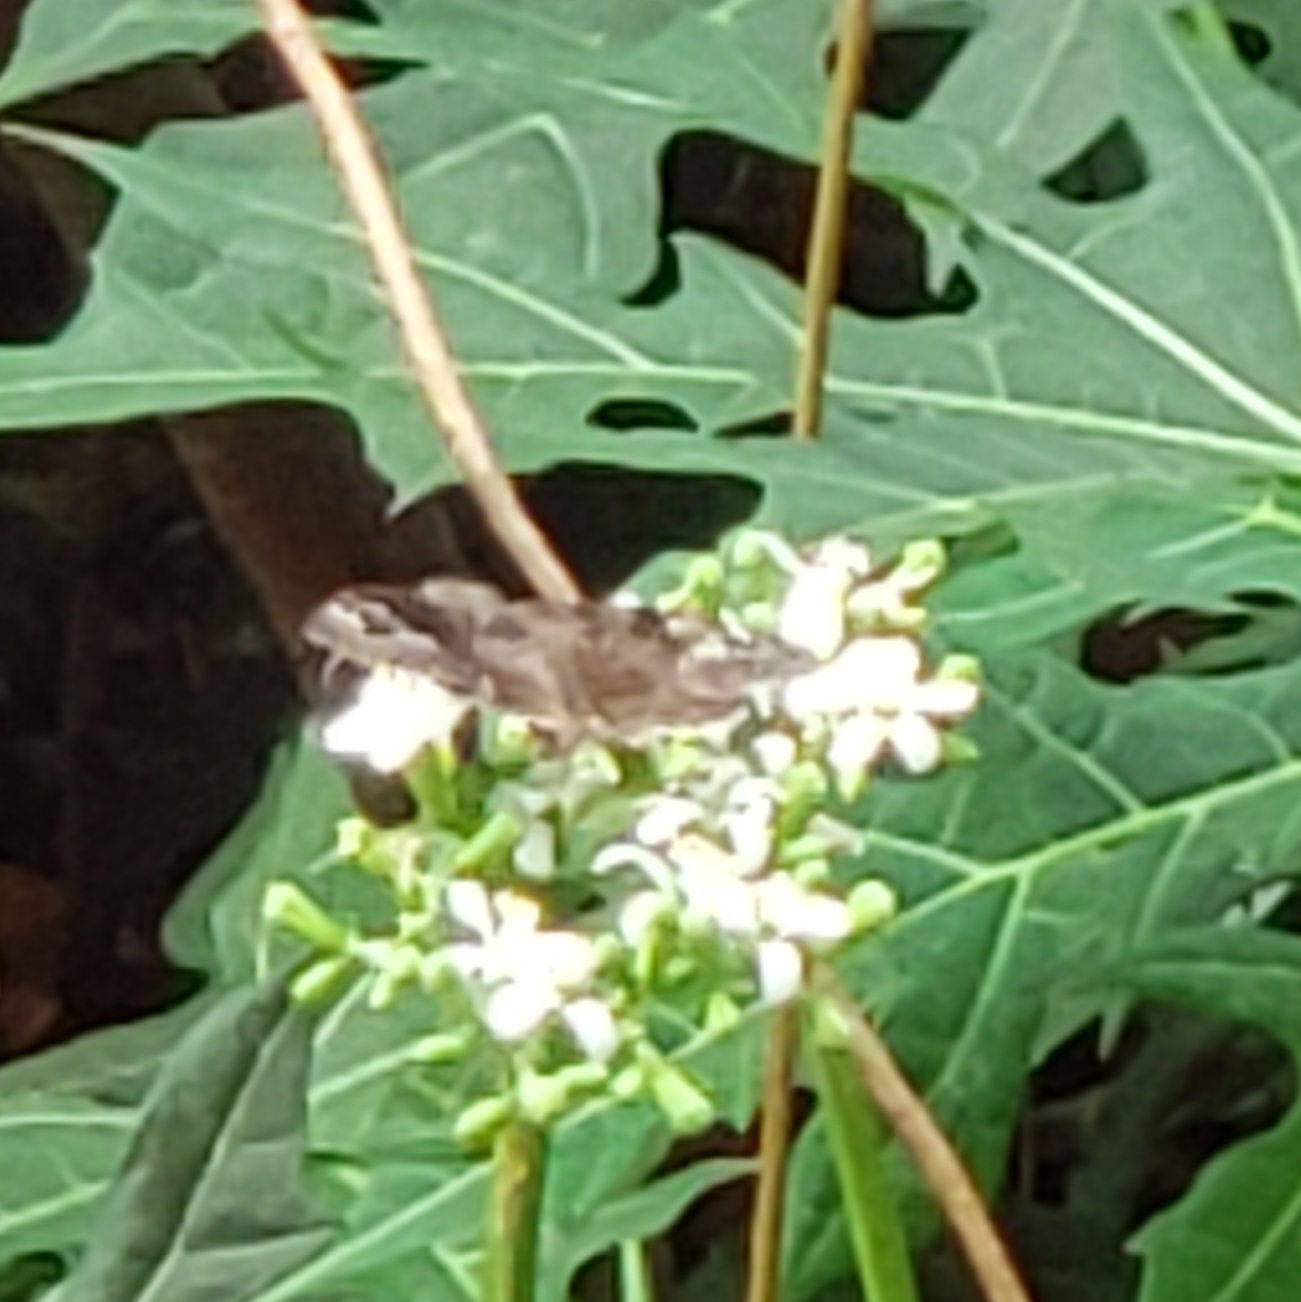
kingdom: Animalia
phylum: Arthropoda
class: Insecta
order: Lepidoptera
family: Hesperiidae
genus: Erynnis
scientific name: Erynnis horatius
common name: Horace's duskywing
